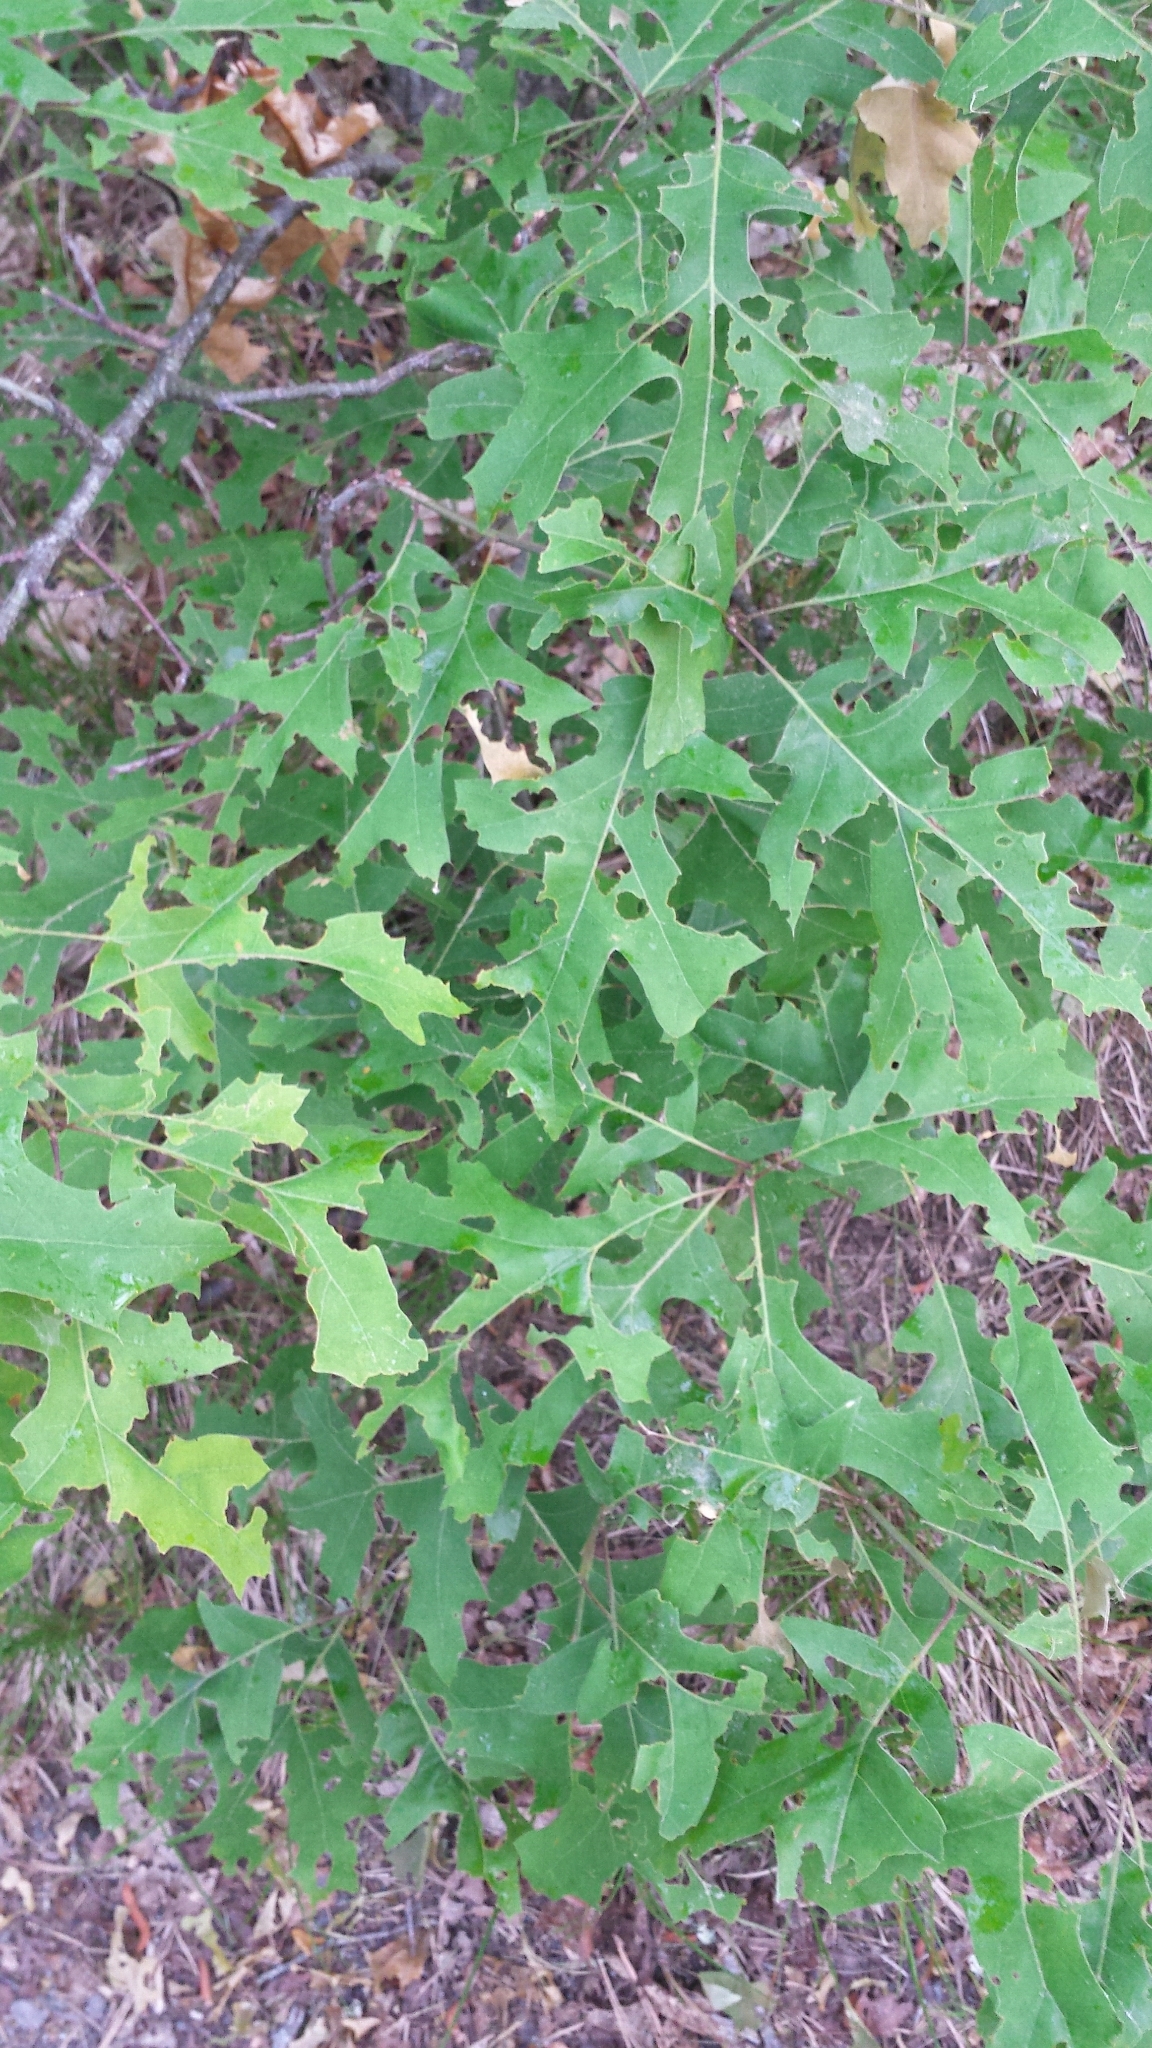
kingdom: Plantae
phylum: Tracheophyta
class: Magnoliopsida
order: Fagales
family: Fagaceae
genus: Quercus
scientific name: Quercus velutina
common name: Black oak
